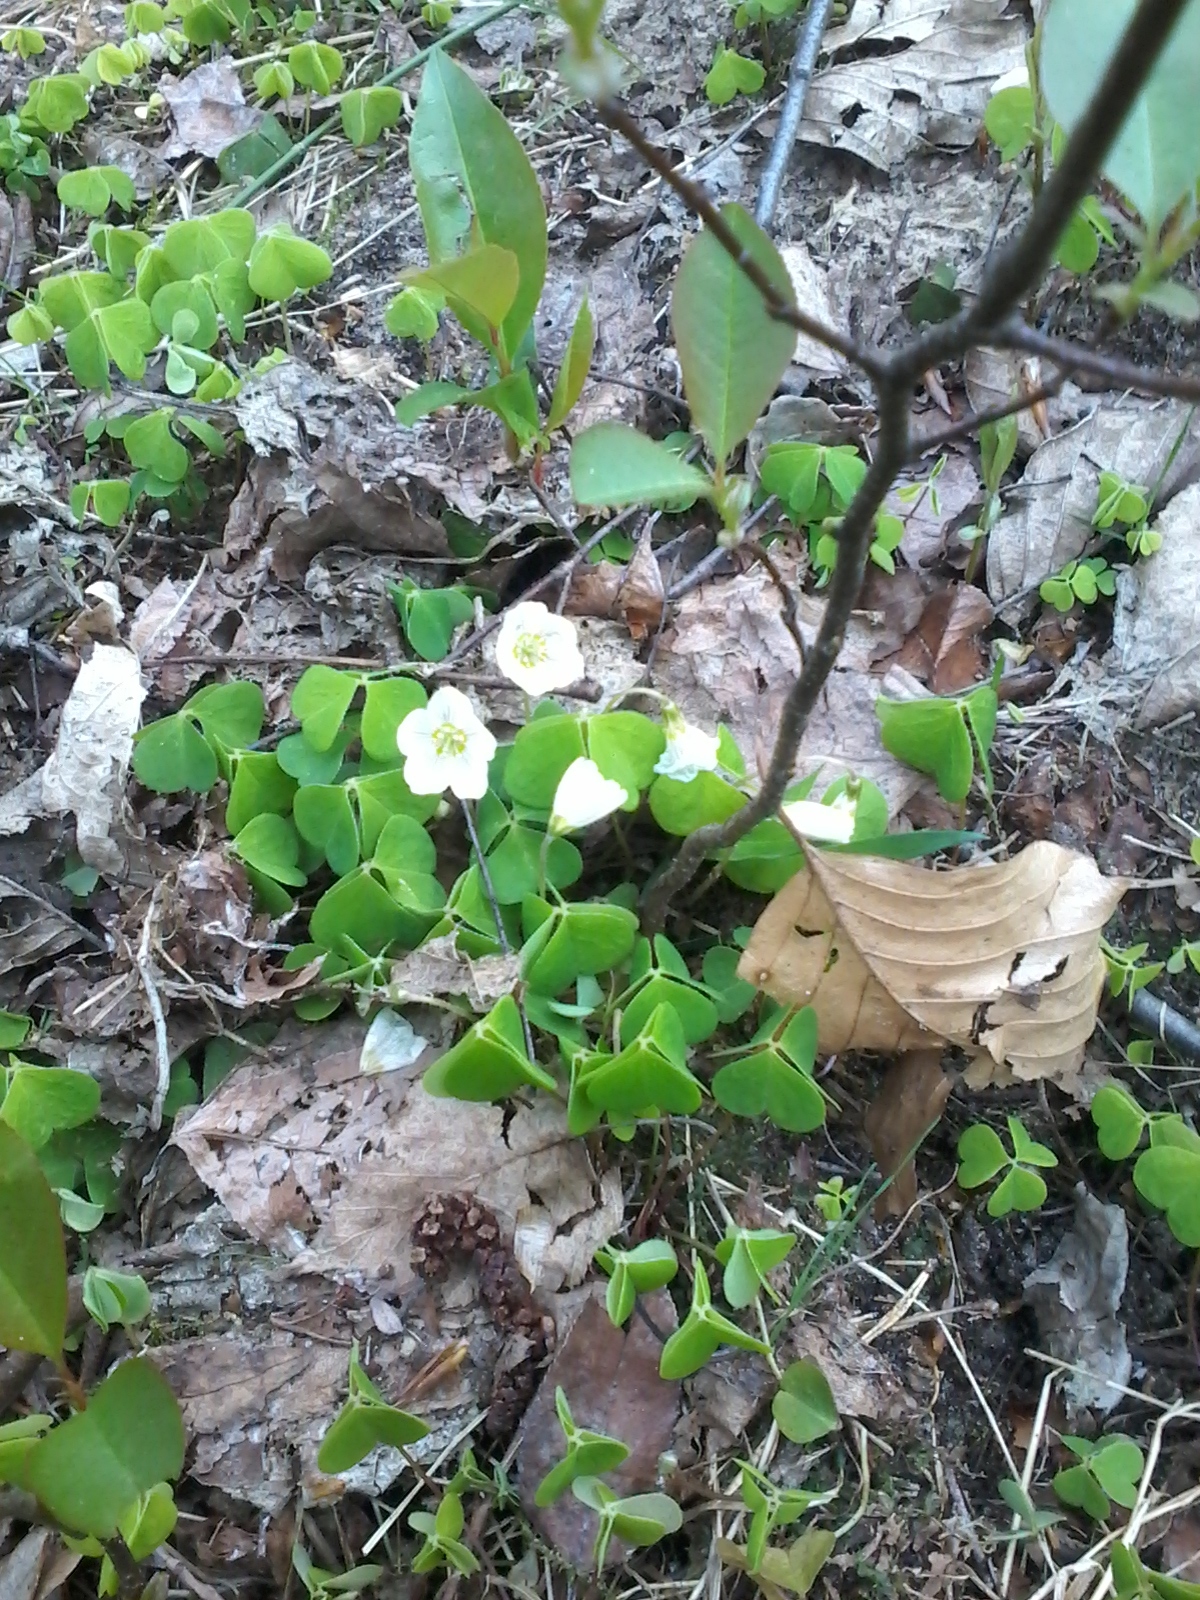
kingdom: Plantae
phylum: Tracheophyta
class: Magnoliopsida
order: Oxalidales
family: Oxalidaceae
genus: Oxalis
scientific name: Oxalis acetosella
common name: Wood-sorrel
